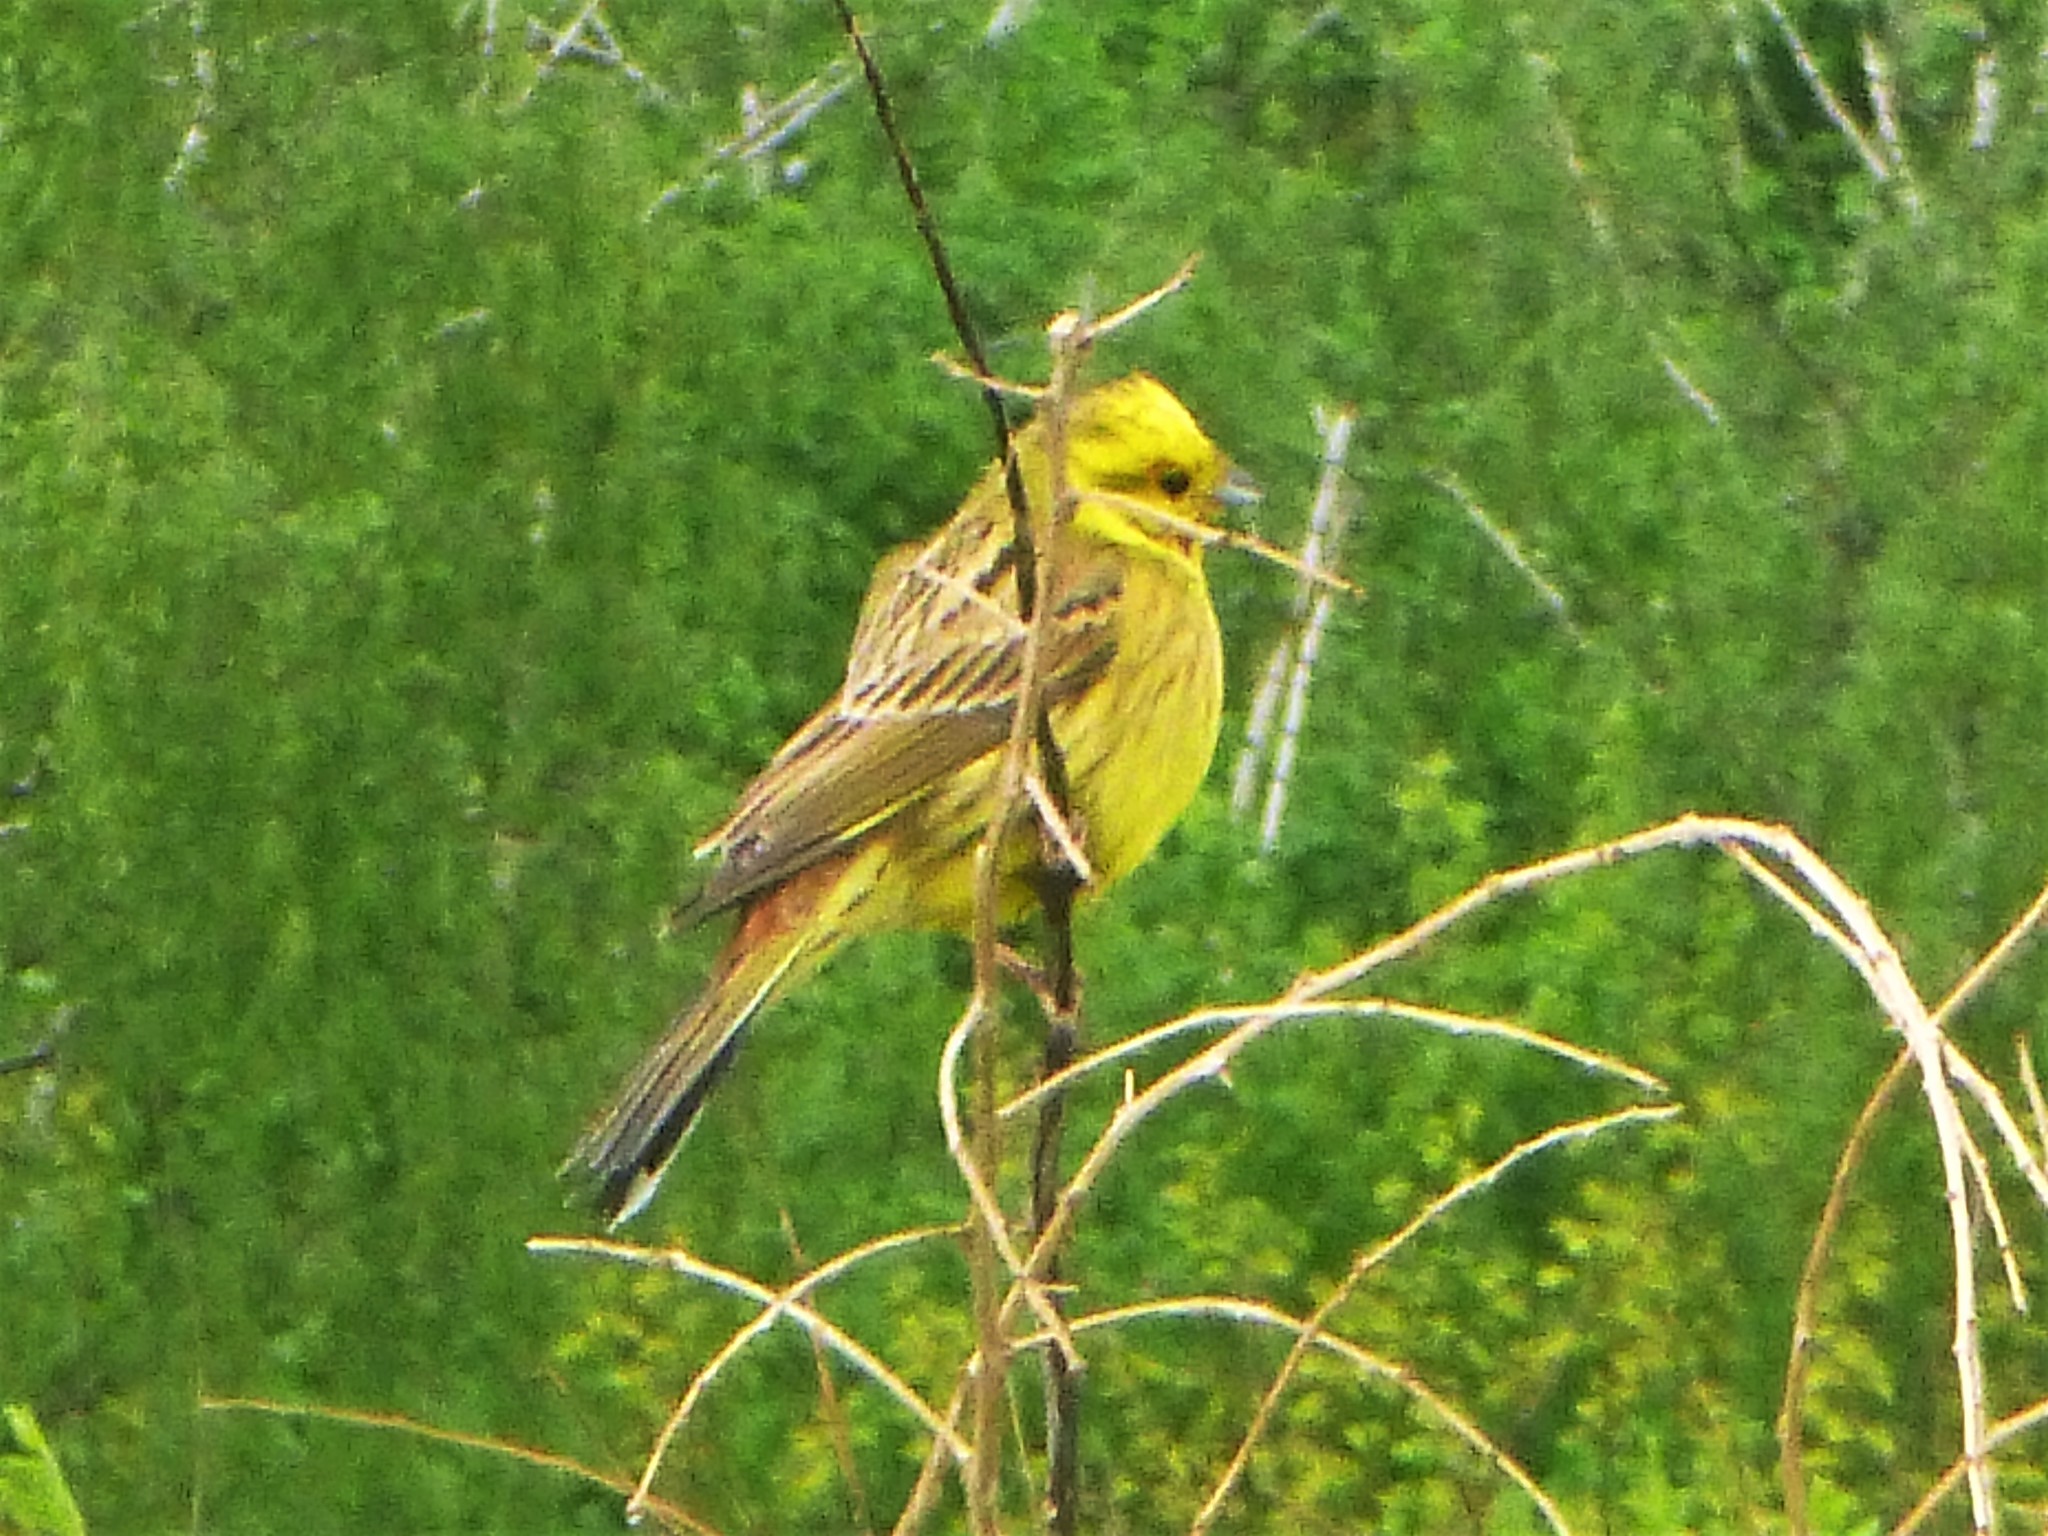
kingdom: Animalia
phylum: Chordata
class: Aves
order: Passeriformes
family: Emberizidae
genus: Emberiza
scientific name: Emberiza citrinella
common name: Yellowhammer
